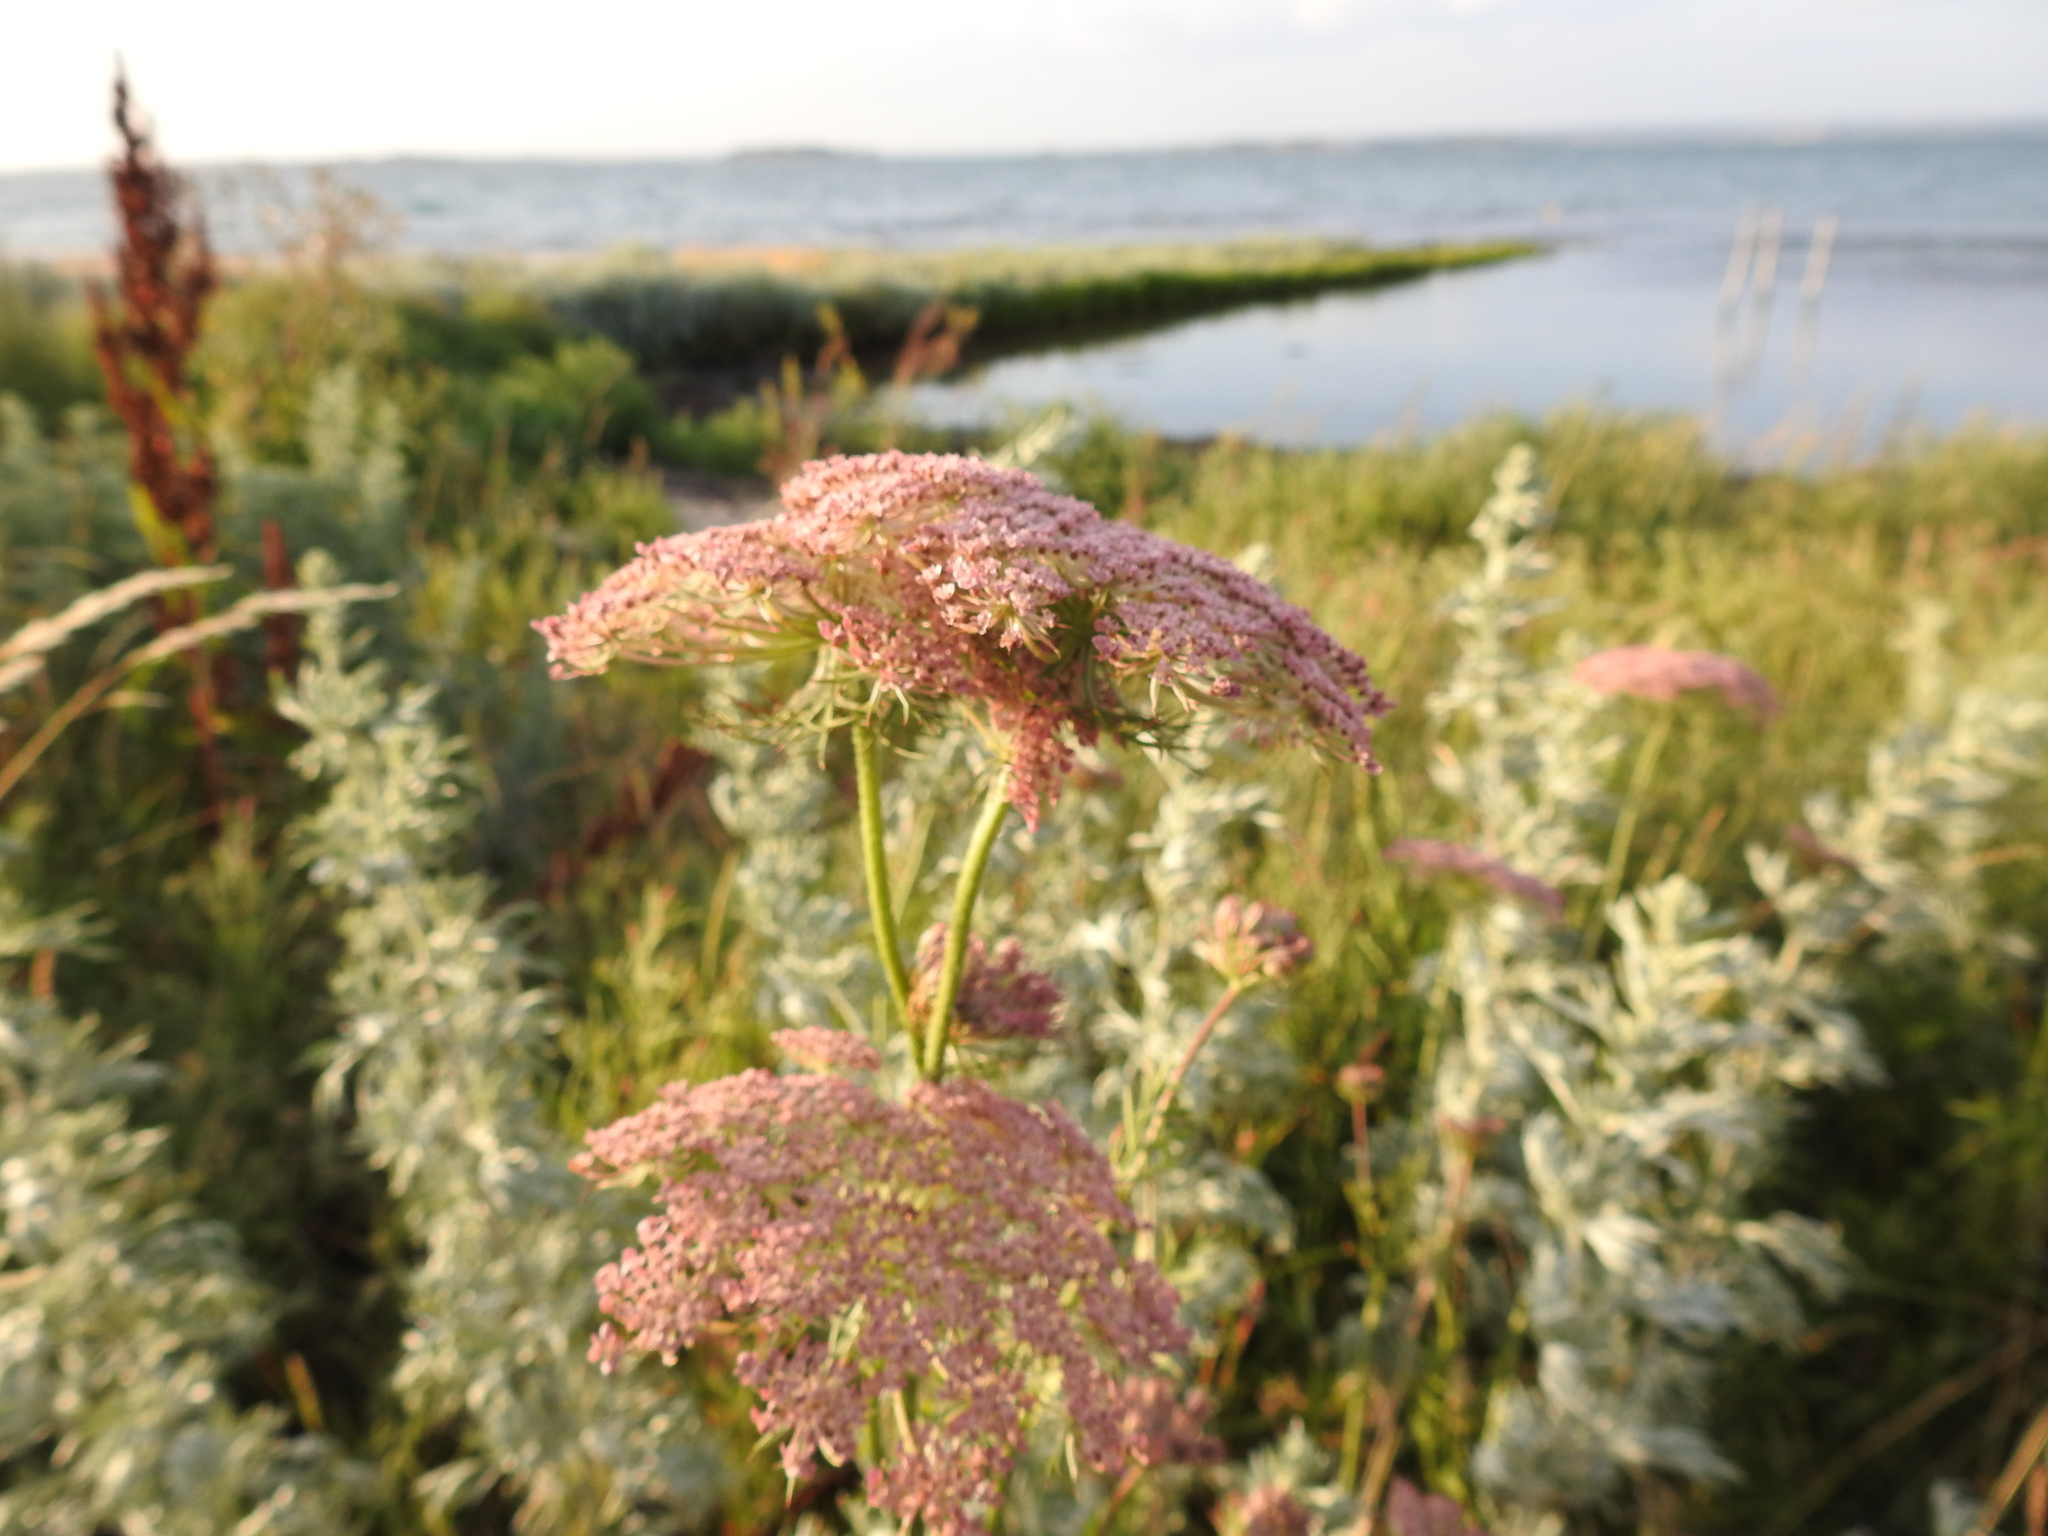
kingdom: Plantae
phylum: Tracheophyta
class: Magnoliopsida
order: Apiales
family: Apiaceae
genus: Daucus
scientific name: Daucus carota
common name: Wild carrot
